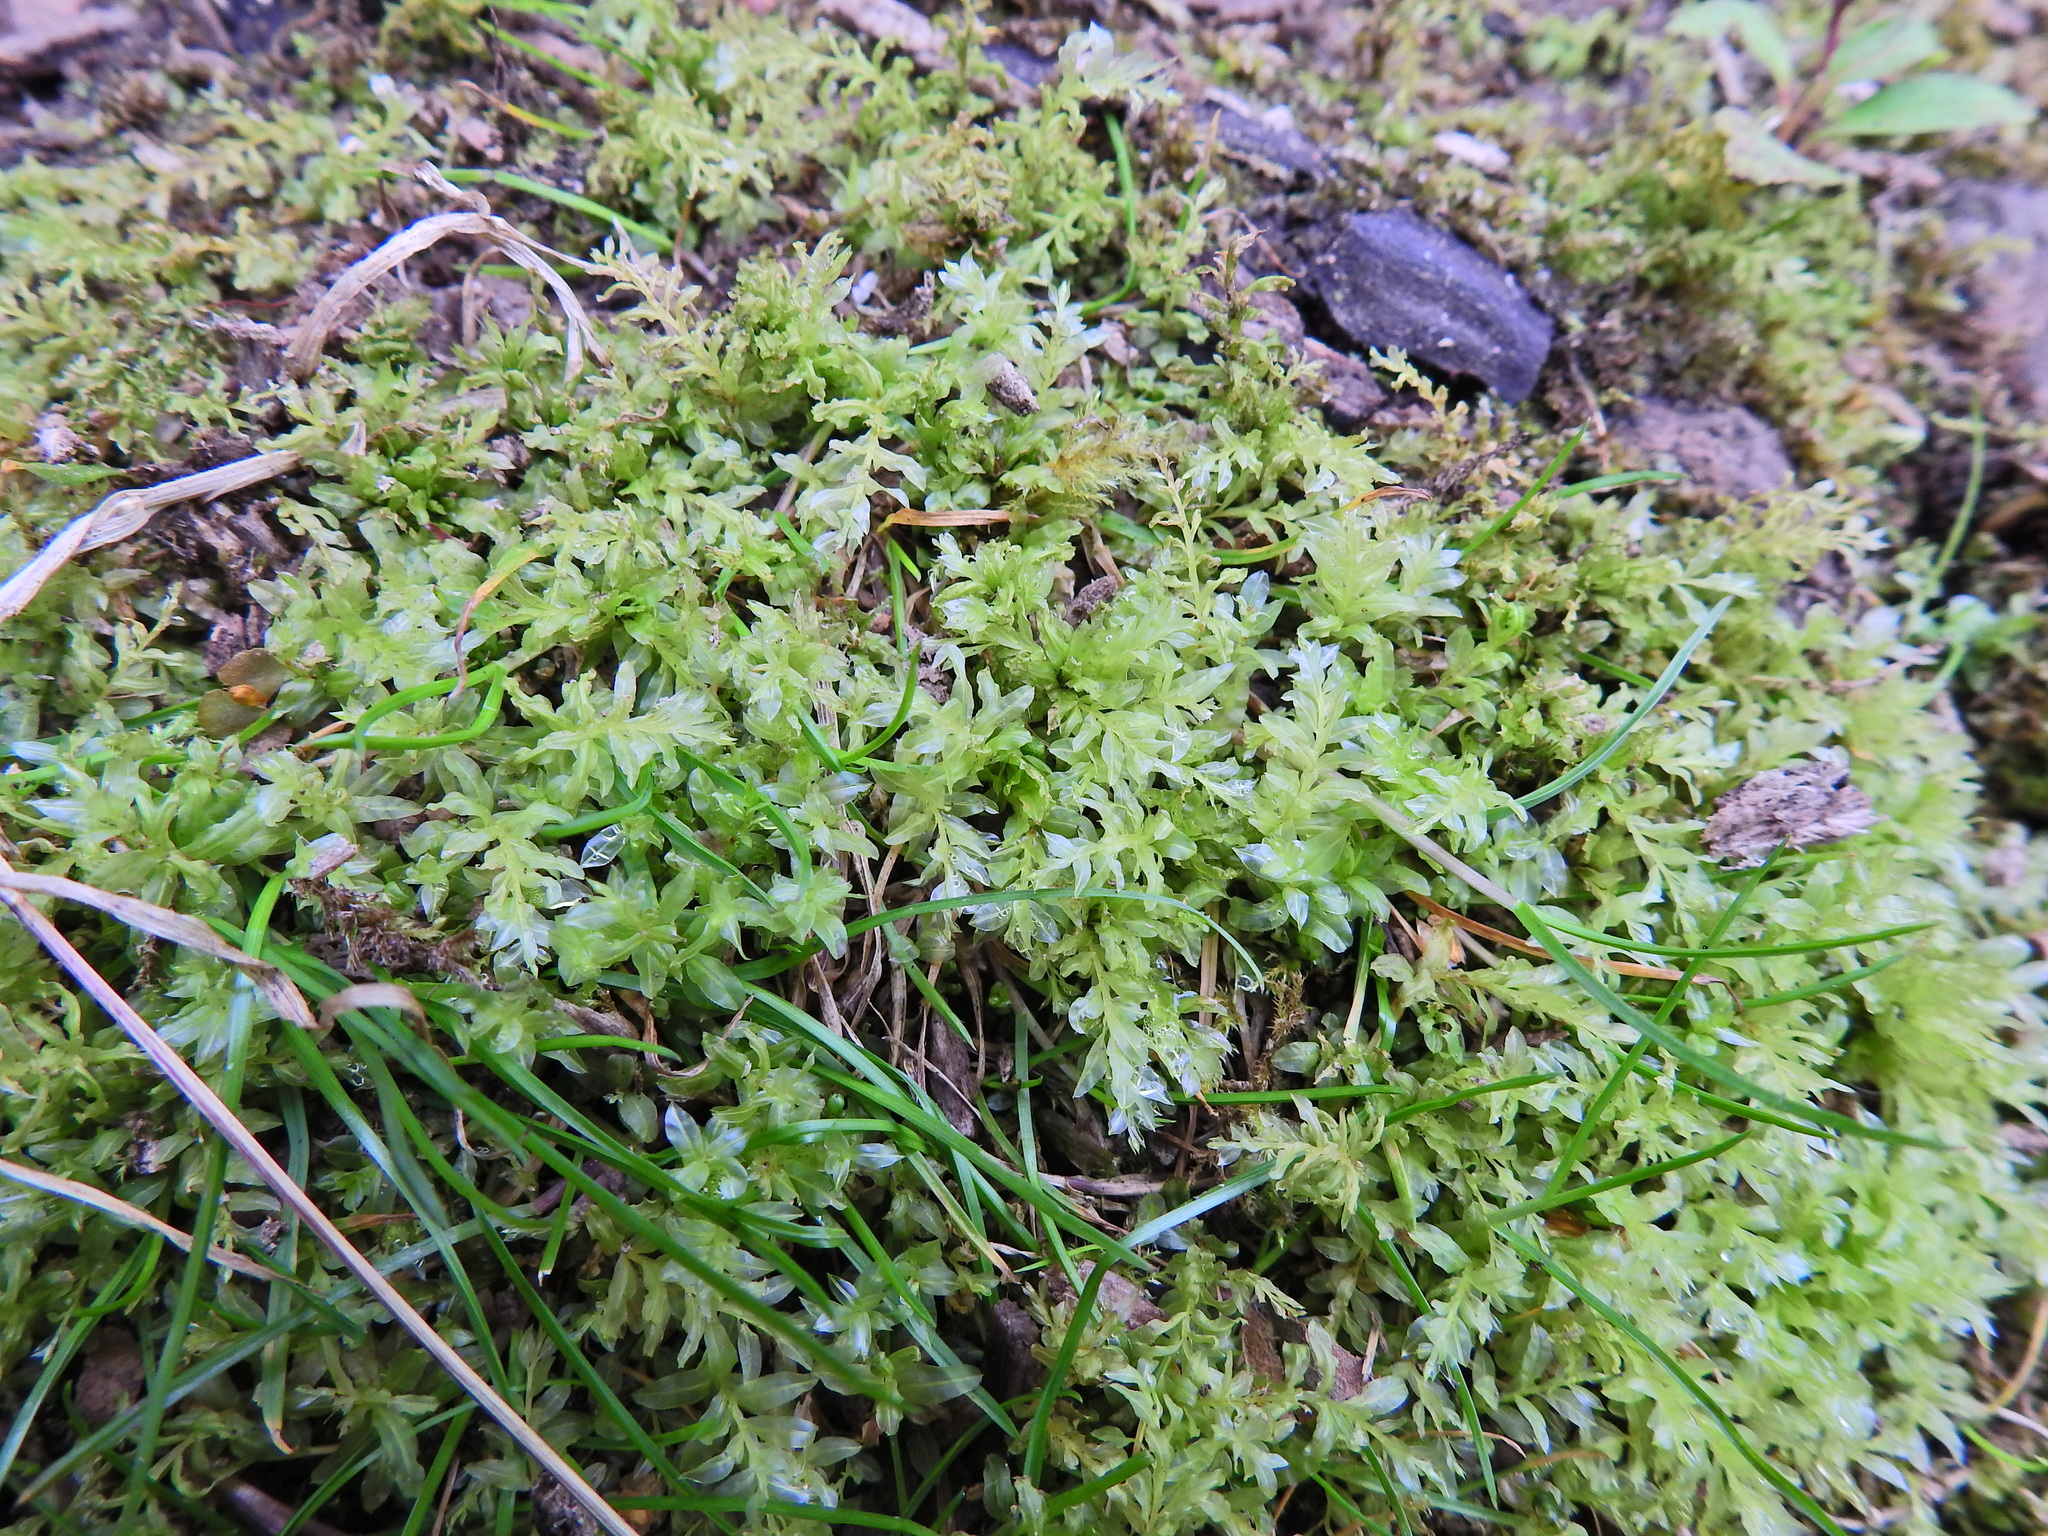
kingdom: Plantae
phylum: Bryophyta
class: Bryopsida
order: Bryales
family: Mniaceae
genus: Plagiomnium
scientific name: Plagiomnium undulatum
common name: Hart's-tongue thyme-moss
